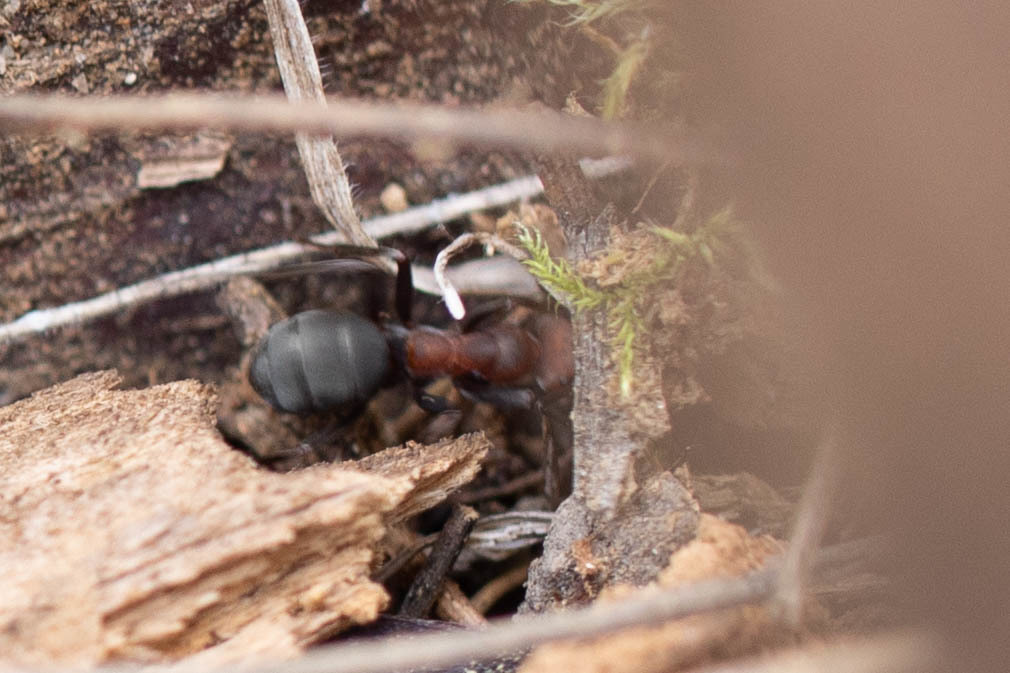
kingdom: Animalia
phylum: Arthropoda
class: Insecta
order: Hymenoptera
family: Formicidae
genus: Formica
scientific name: Formica obscuripes
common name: Western thatching ant
